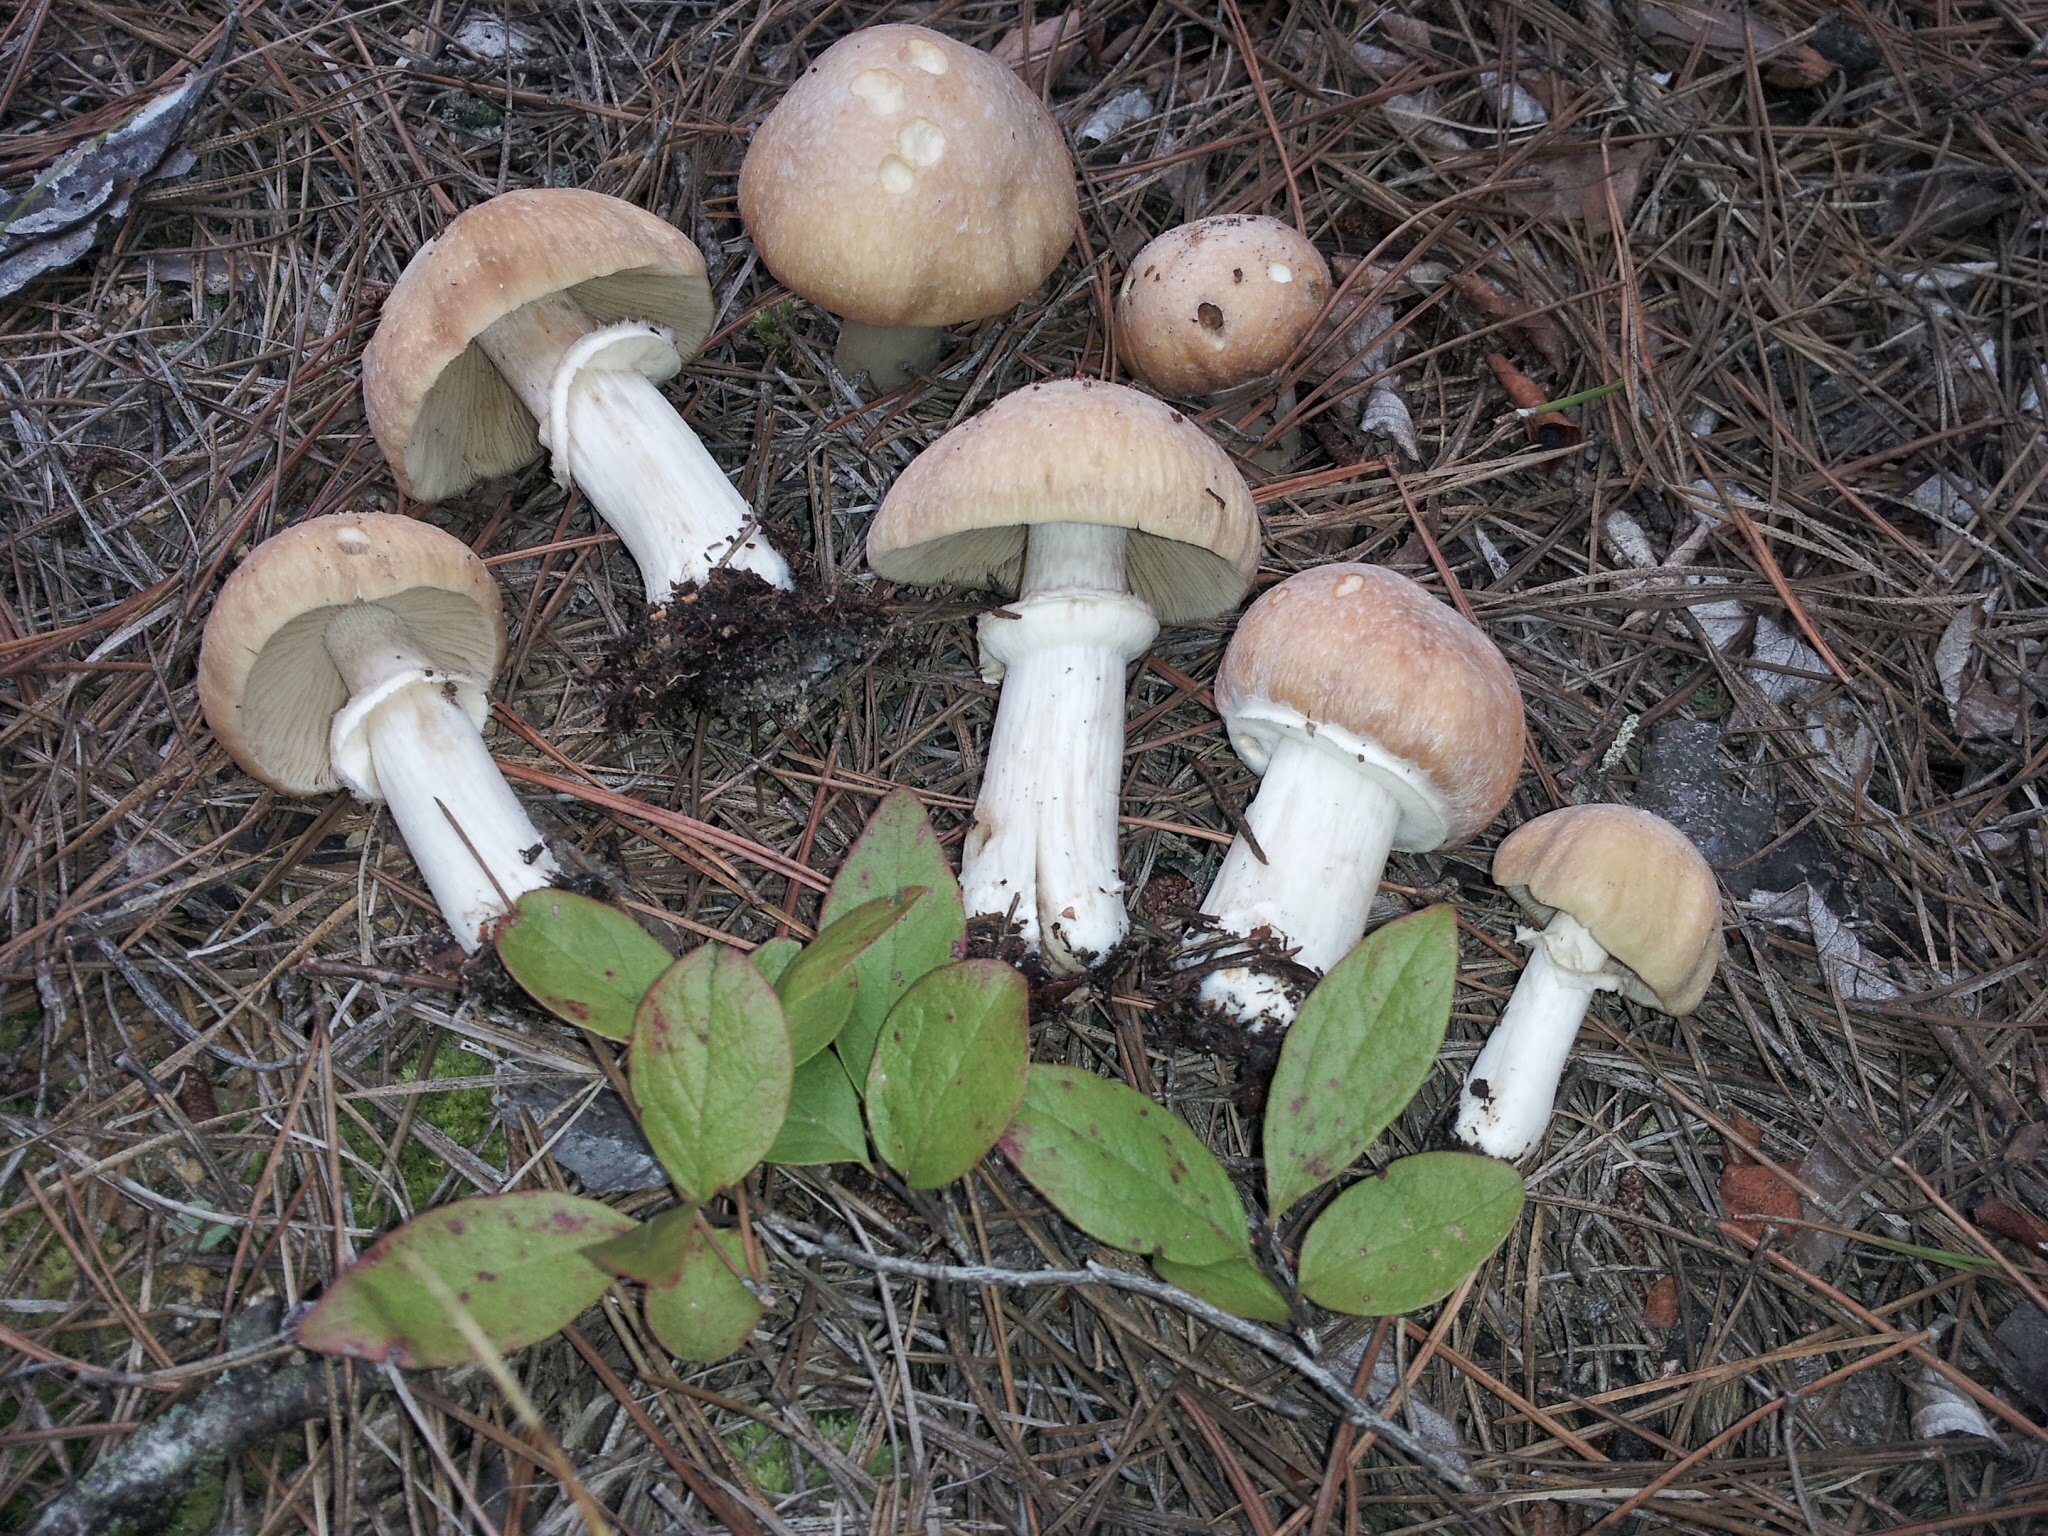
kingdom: Fungi
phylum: Basidiomycota
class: Agaricomycetes
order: Agaricales
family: Cortinariaceae
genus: Cortinarius
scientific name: Cortinarius caperatus
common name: The gypsy
